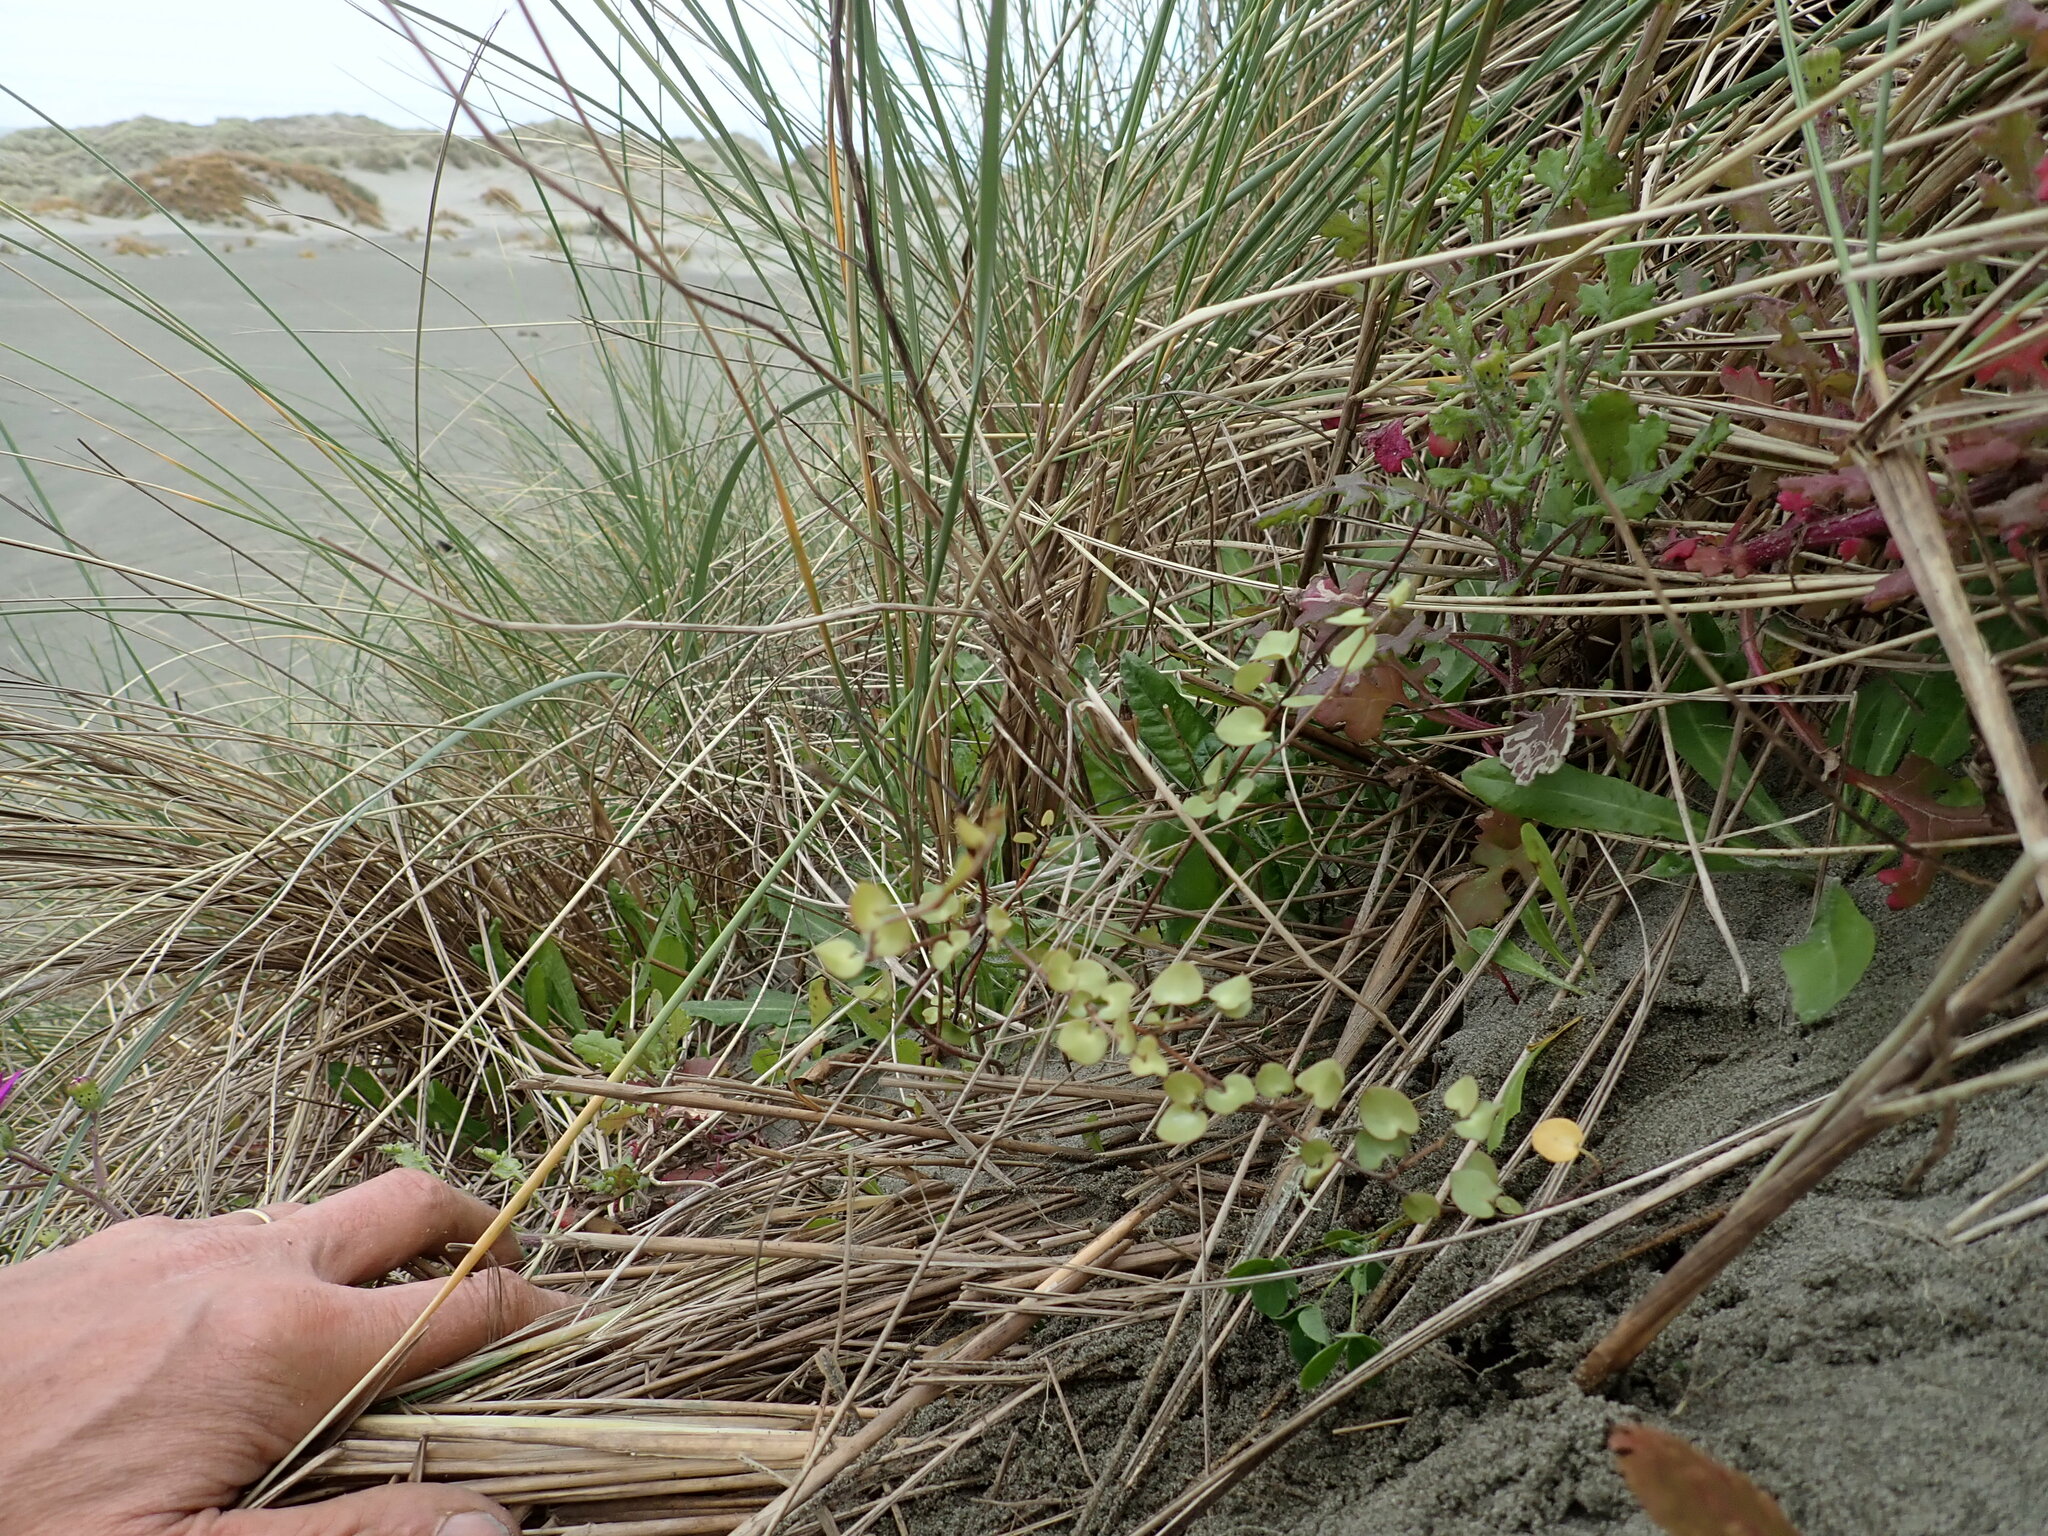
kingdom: Plantae
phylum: Tracheophyta
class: Magnoliopsida
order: Caryophyllales
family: Polygonaceae
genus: Muehlenbeckia
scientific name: Muehlenbeckia complexa
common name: Wireplant
